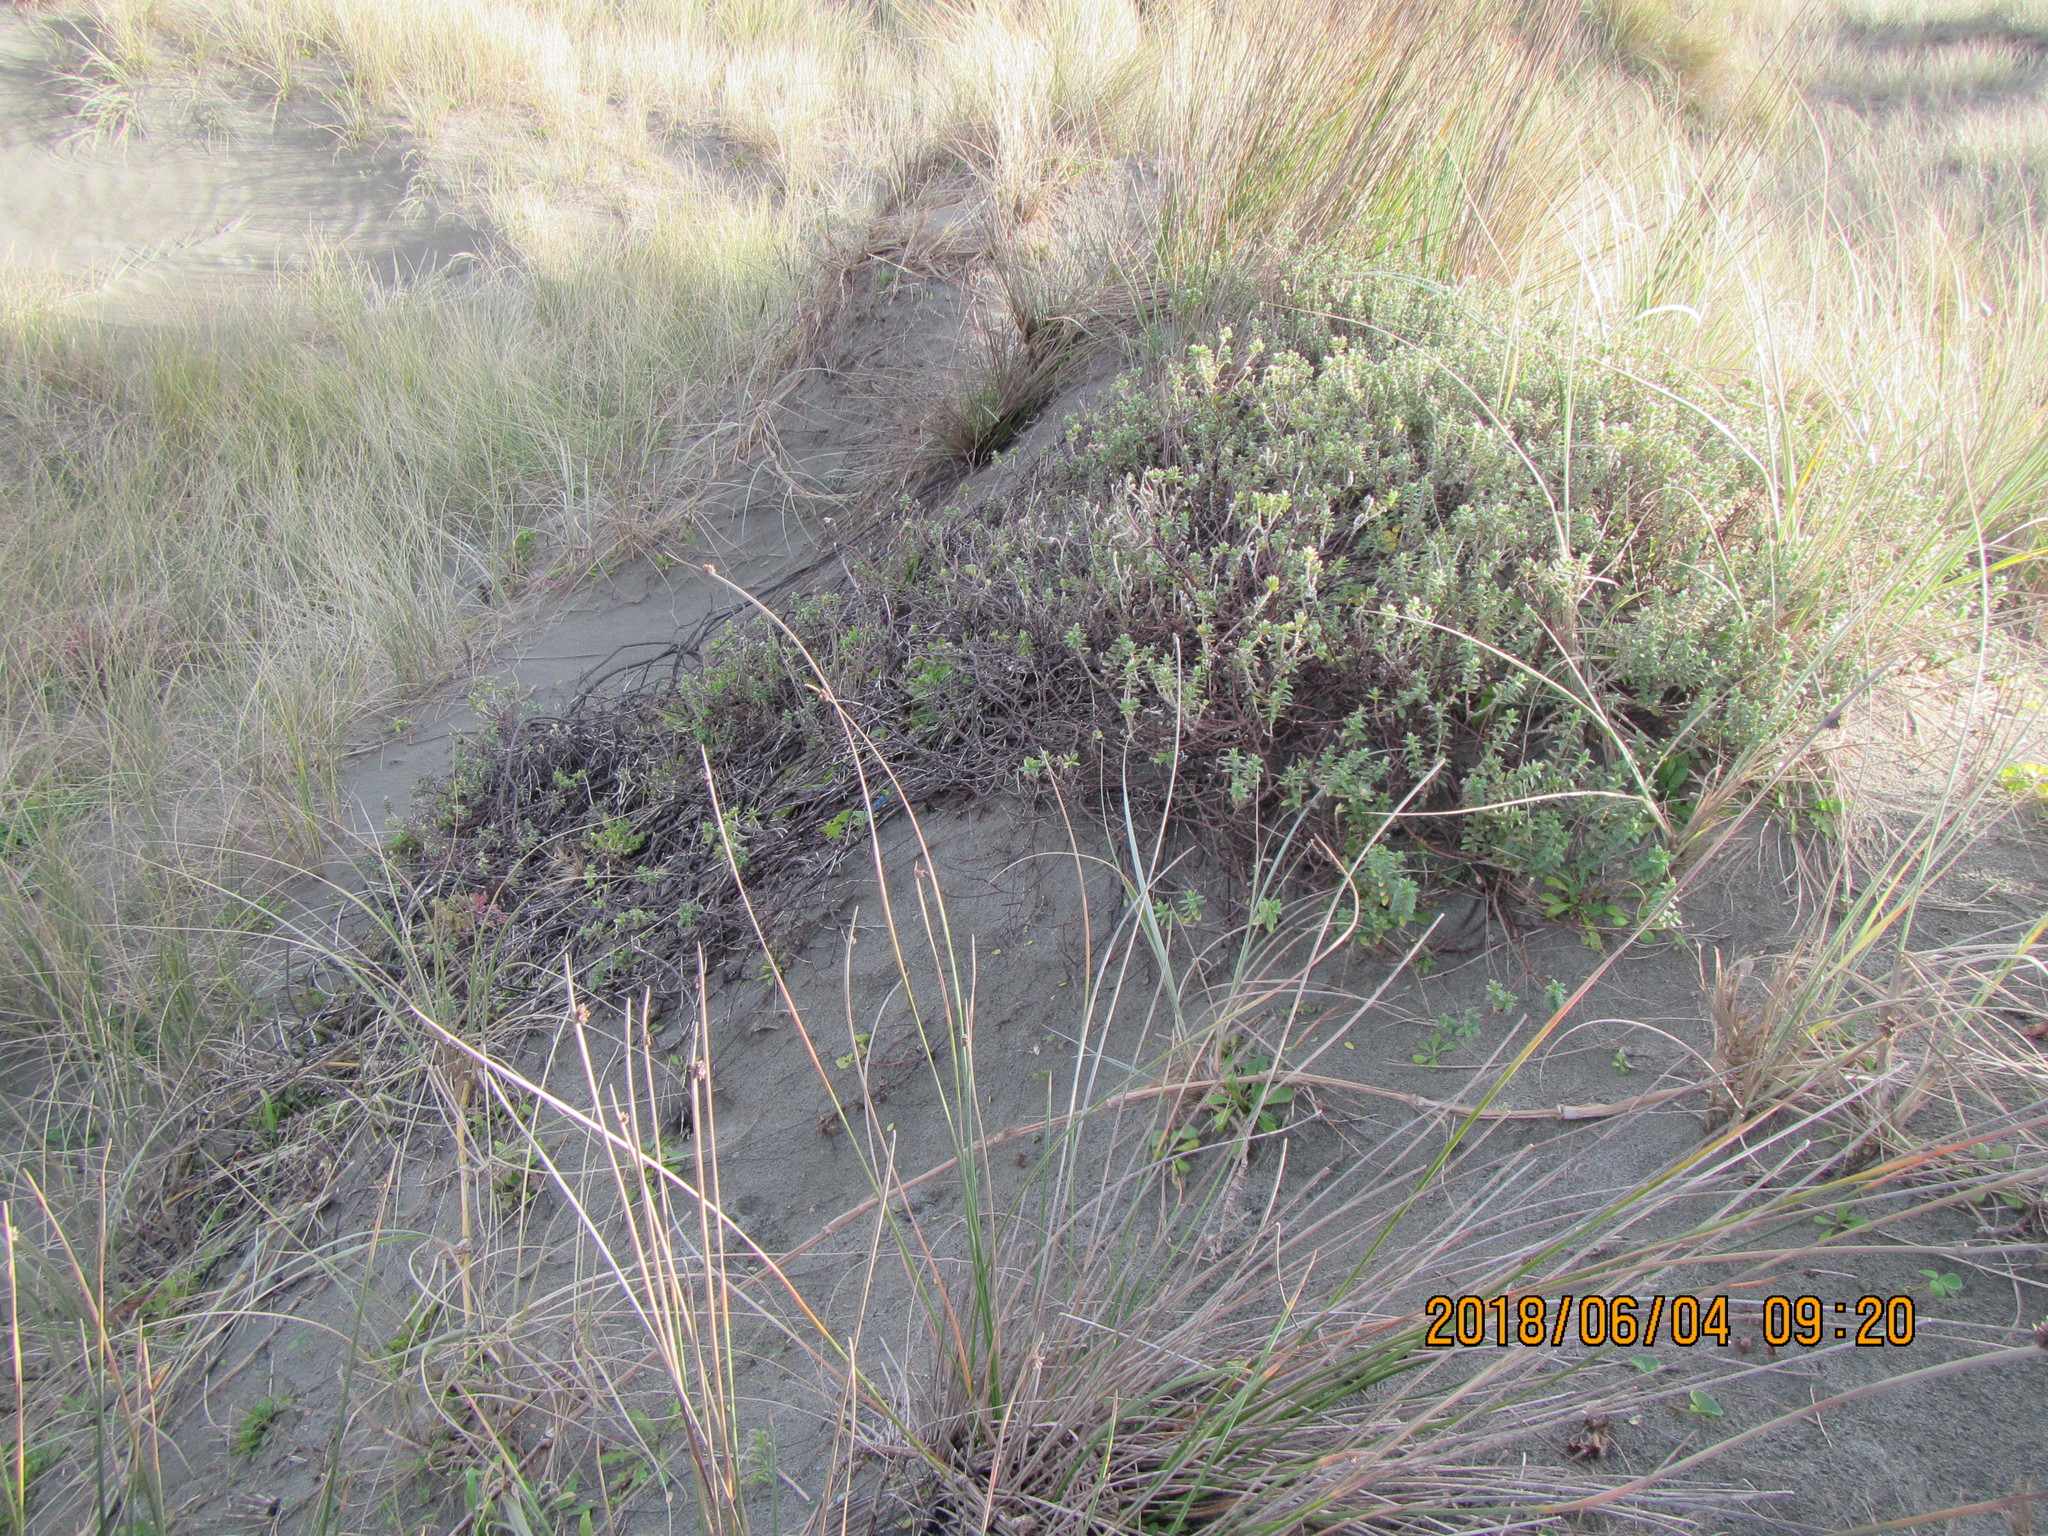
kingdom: Plantae
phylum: Tracheophyta
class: Magnoliopsida
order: Malvales
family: Thymelaeaceae
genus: Pimelea
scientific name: Pimelea villosa
